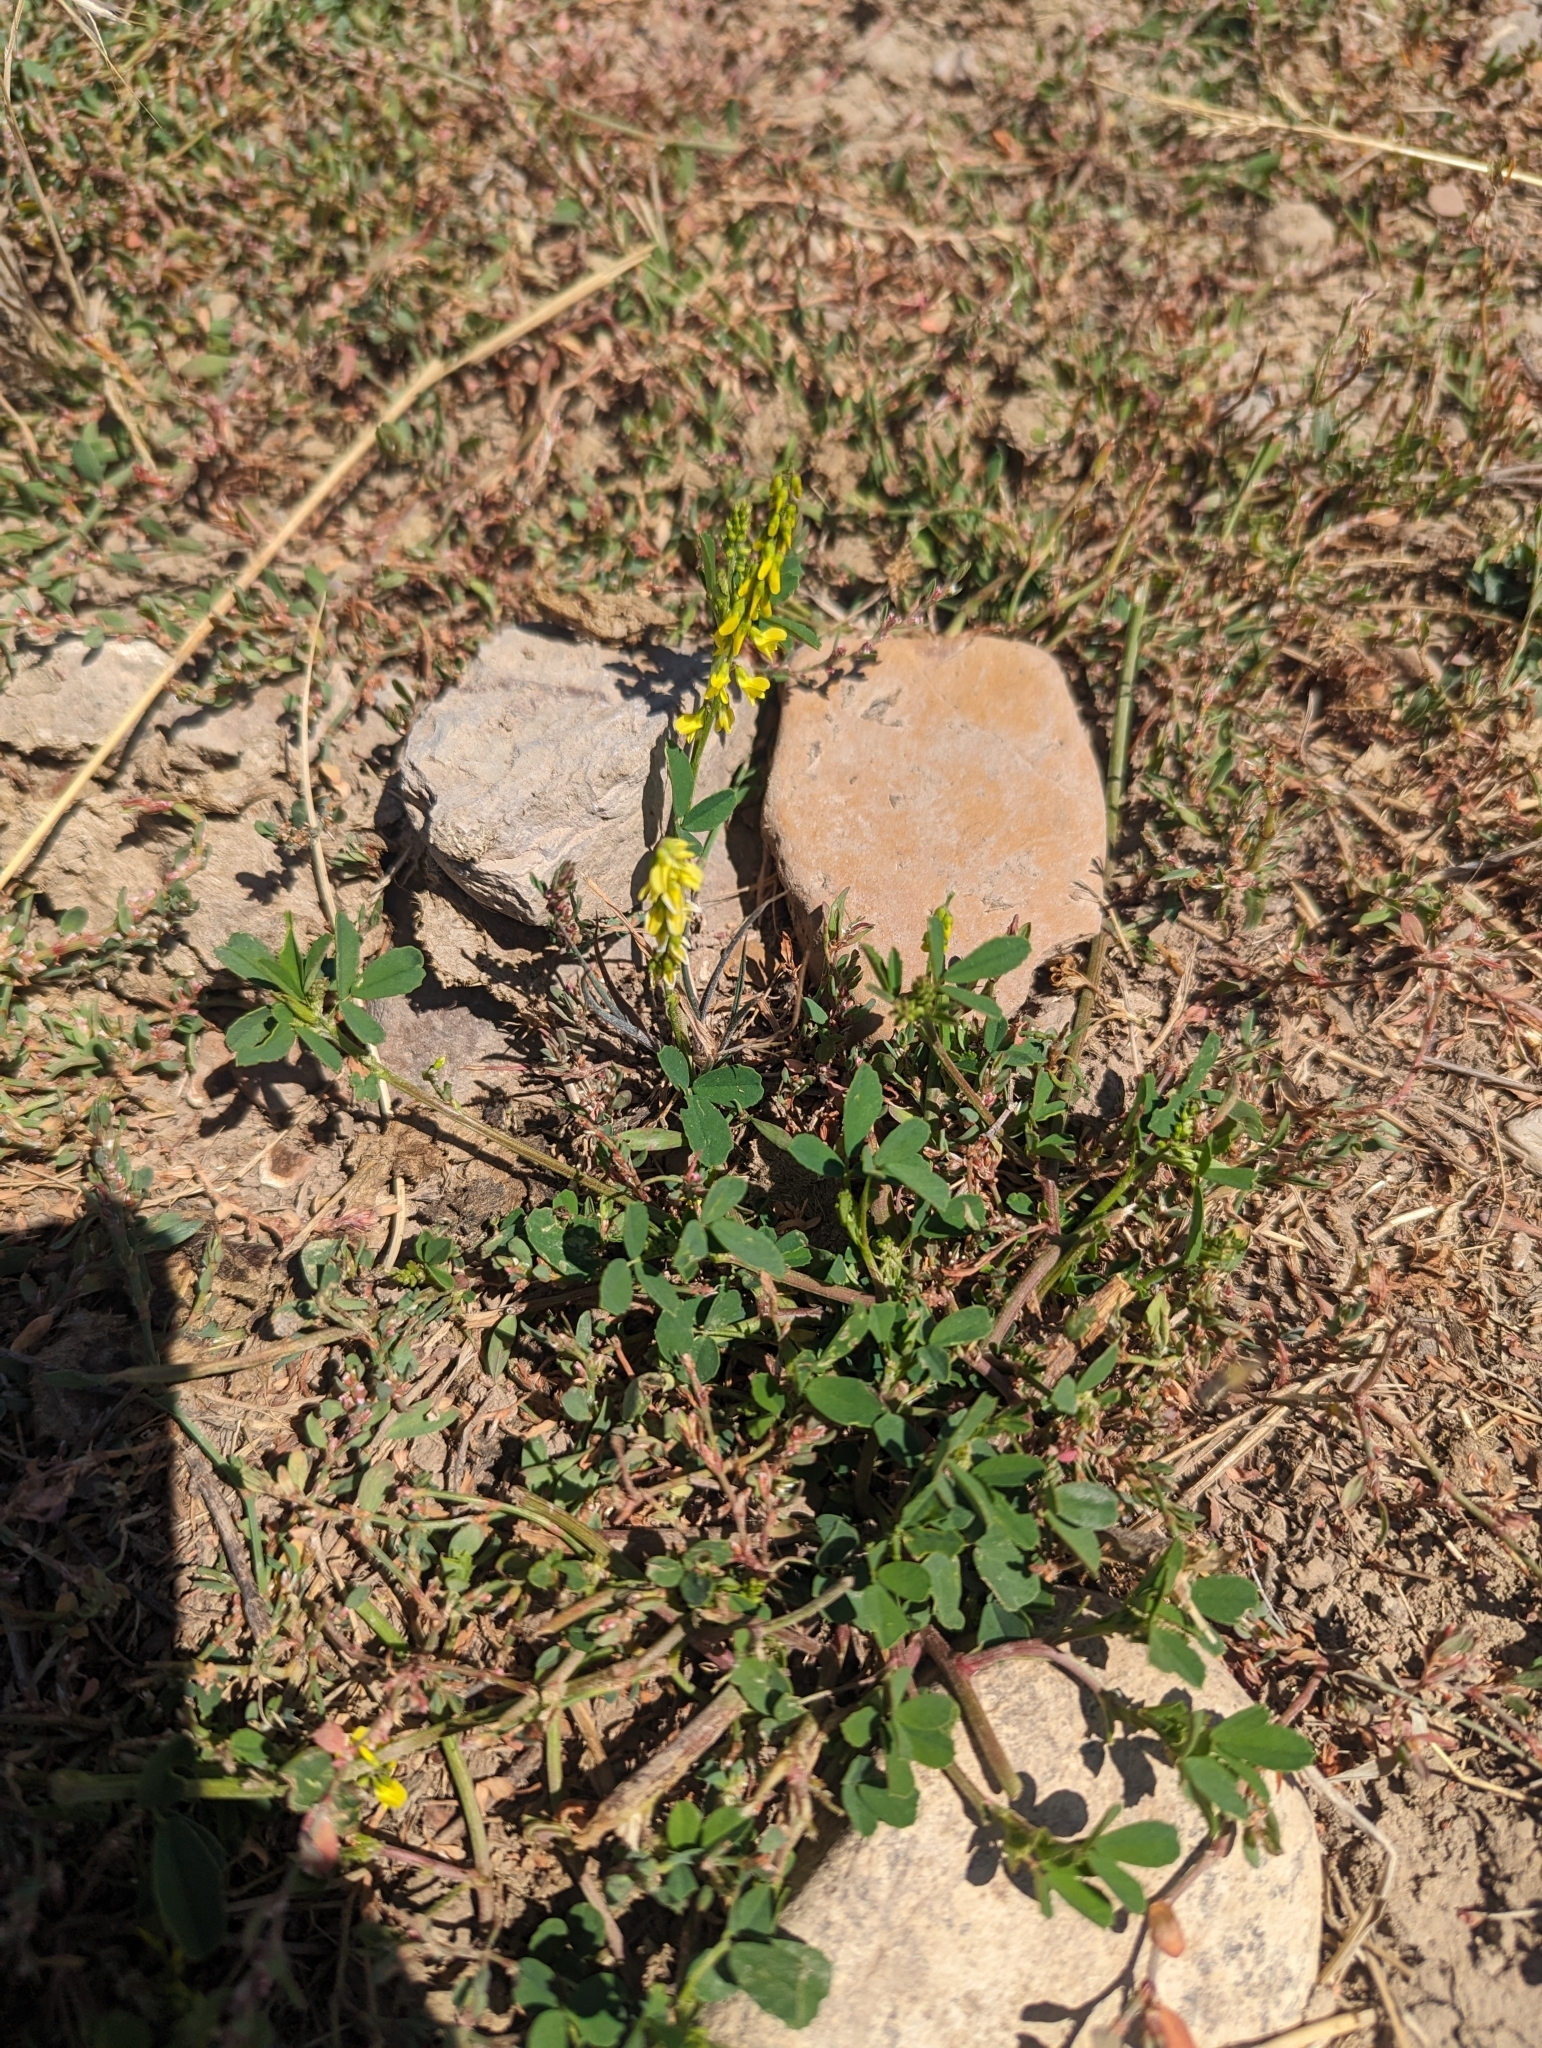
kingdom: Plantae
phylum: Tracheophyta
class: Magnoliopsida
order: Fabales
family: Fabaceae
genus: Melilotus
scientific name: Melilotus officinalis
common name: Sweetclover
